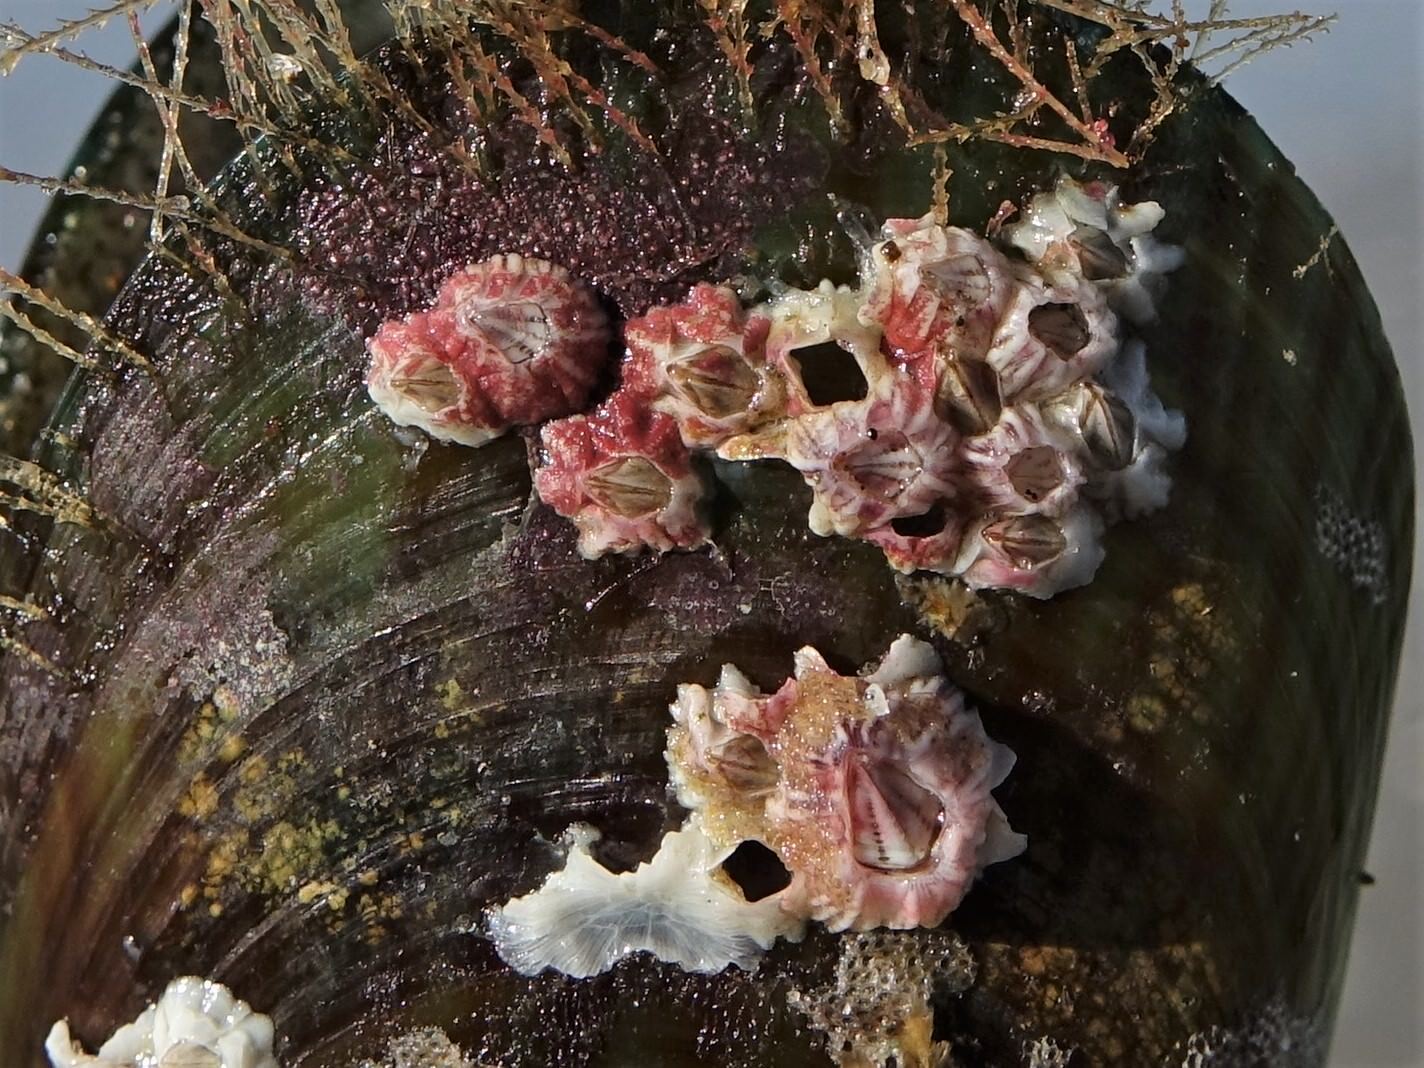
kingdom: Animalia
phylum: Arthropoda
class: Maxillopoda
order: Sessilia
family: Balanidae
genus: Balanus
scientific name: Balanus trigonus
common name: Triangle barnacle
